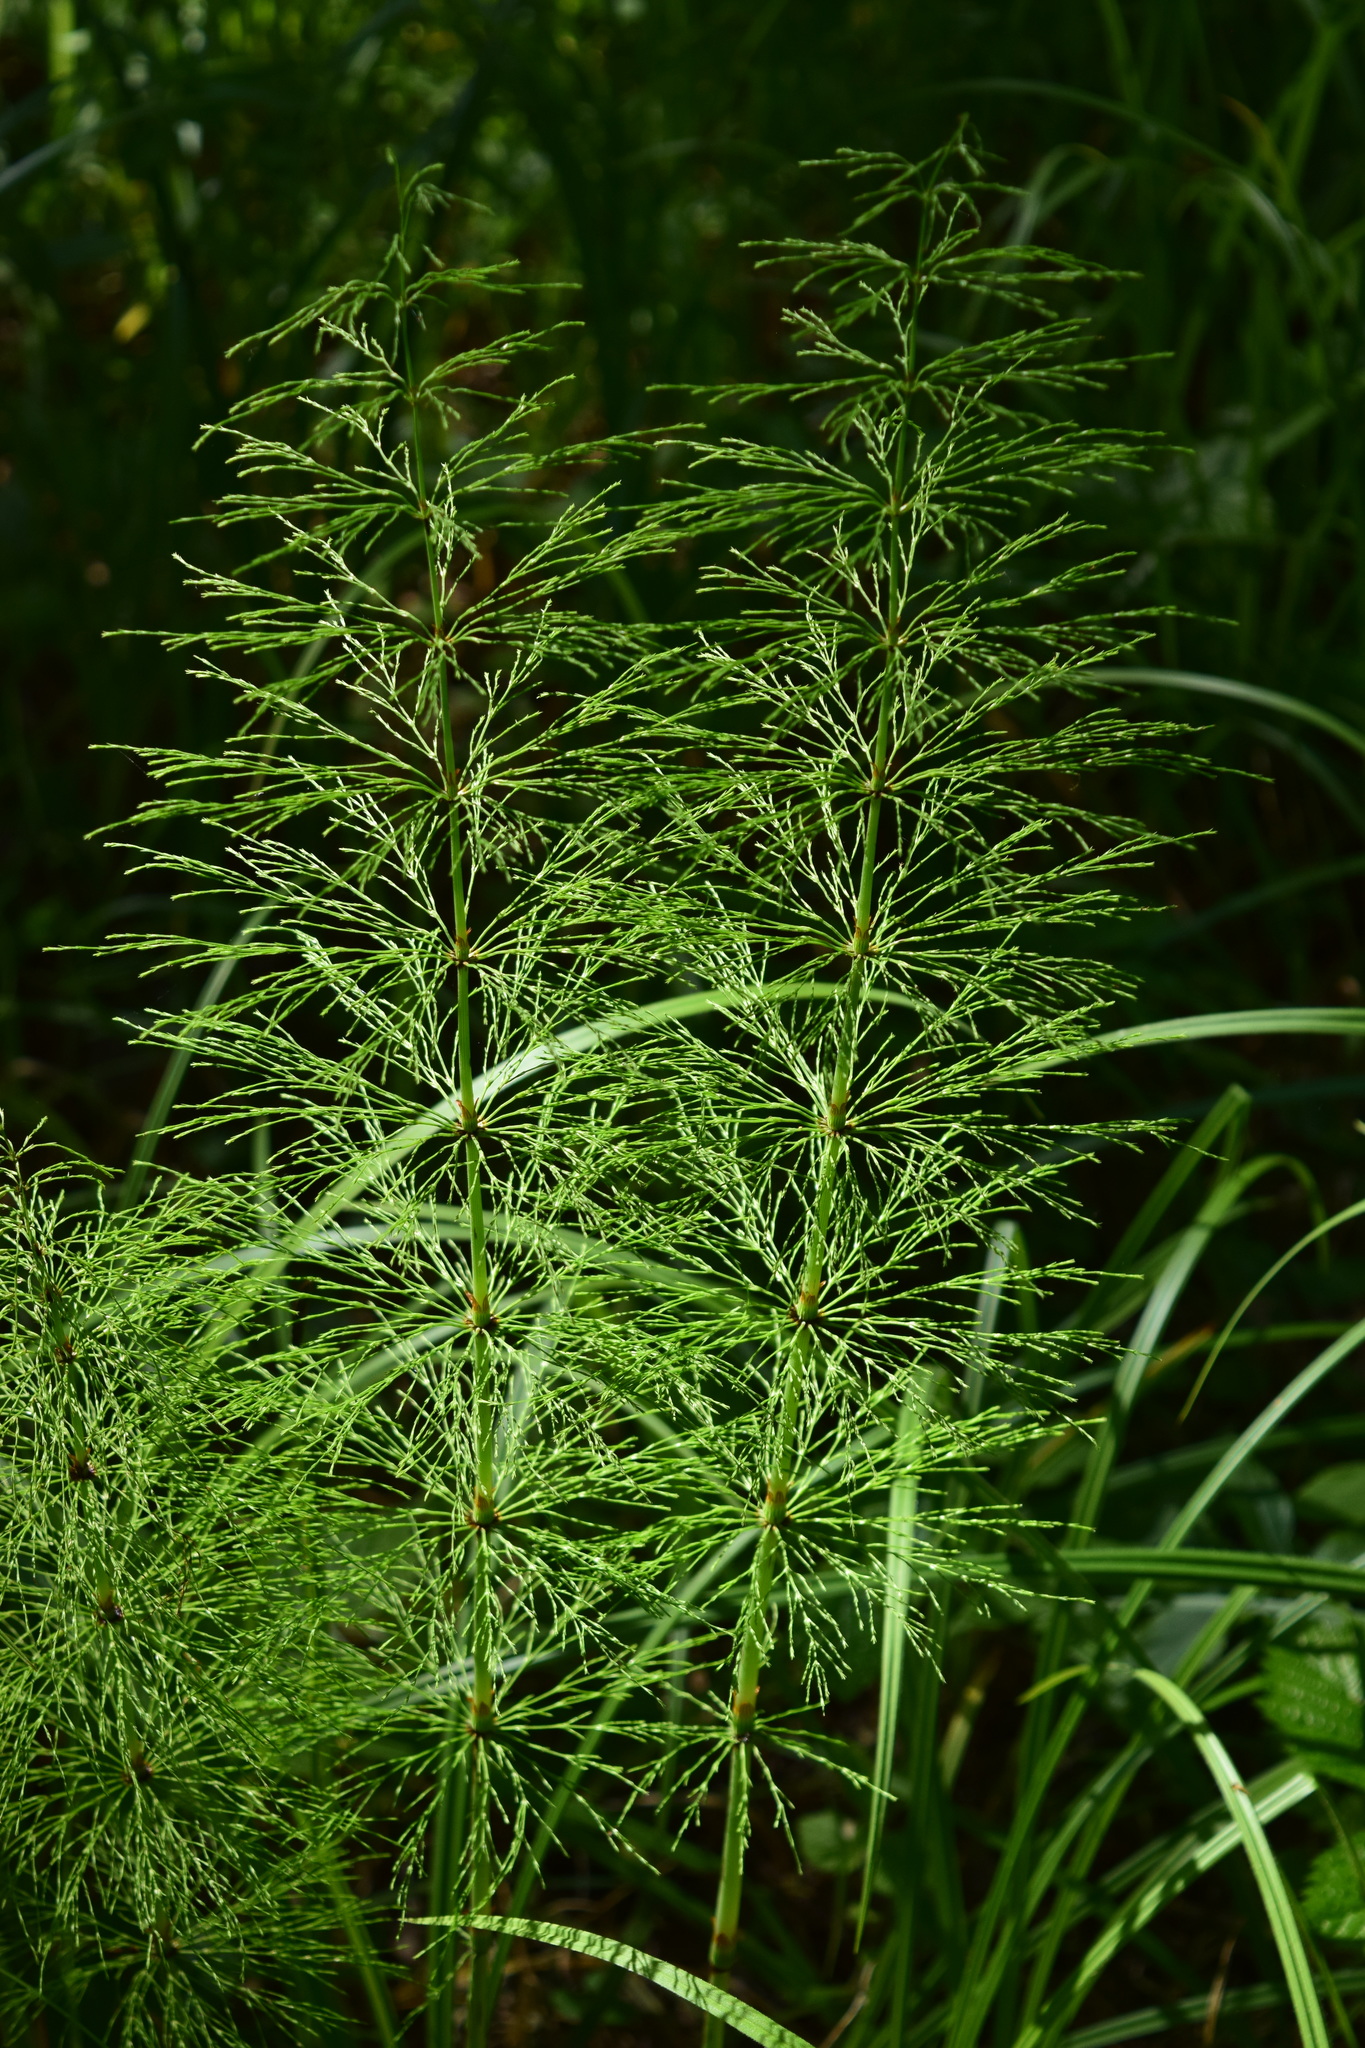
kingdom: Plantae
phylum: Tracheophyta
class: Polypodiopsida
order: Equisetales
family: Equisetaceae
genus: Equisetum
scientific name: Equisetum sylvaticum
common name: Wood horsetail
